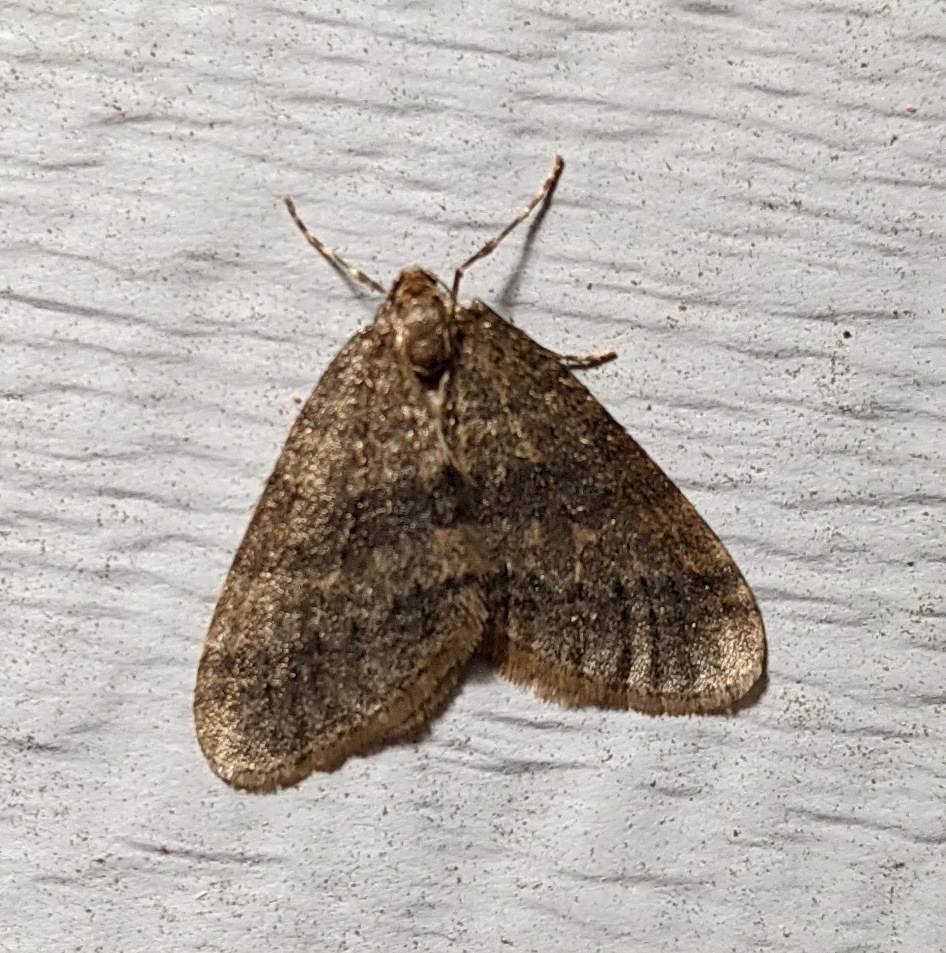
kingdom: Animalia
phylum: Arthropoda
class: Insecta
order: Lepidoptera
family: Geometridae
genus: Operophtera
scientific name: Operophtera brumata
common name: Winter moth
